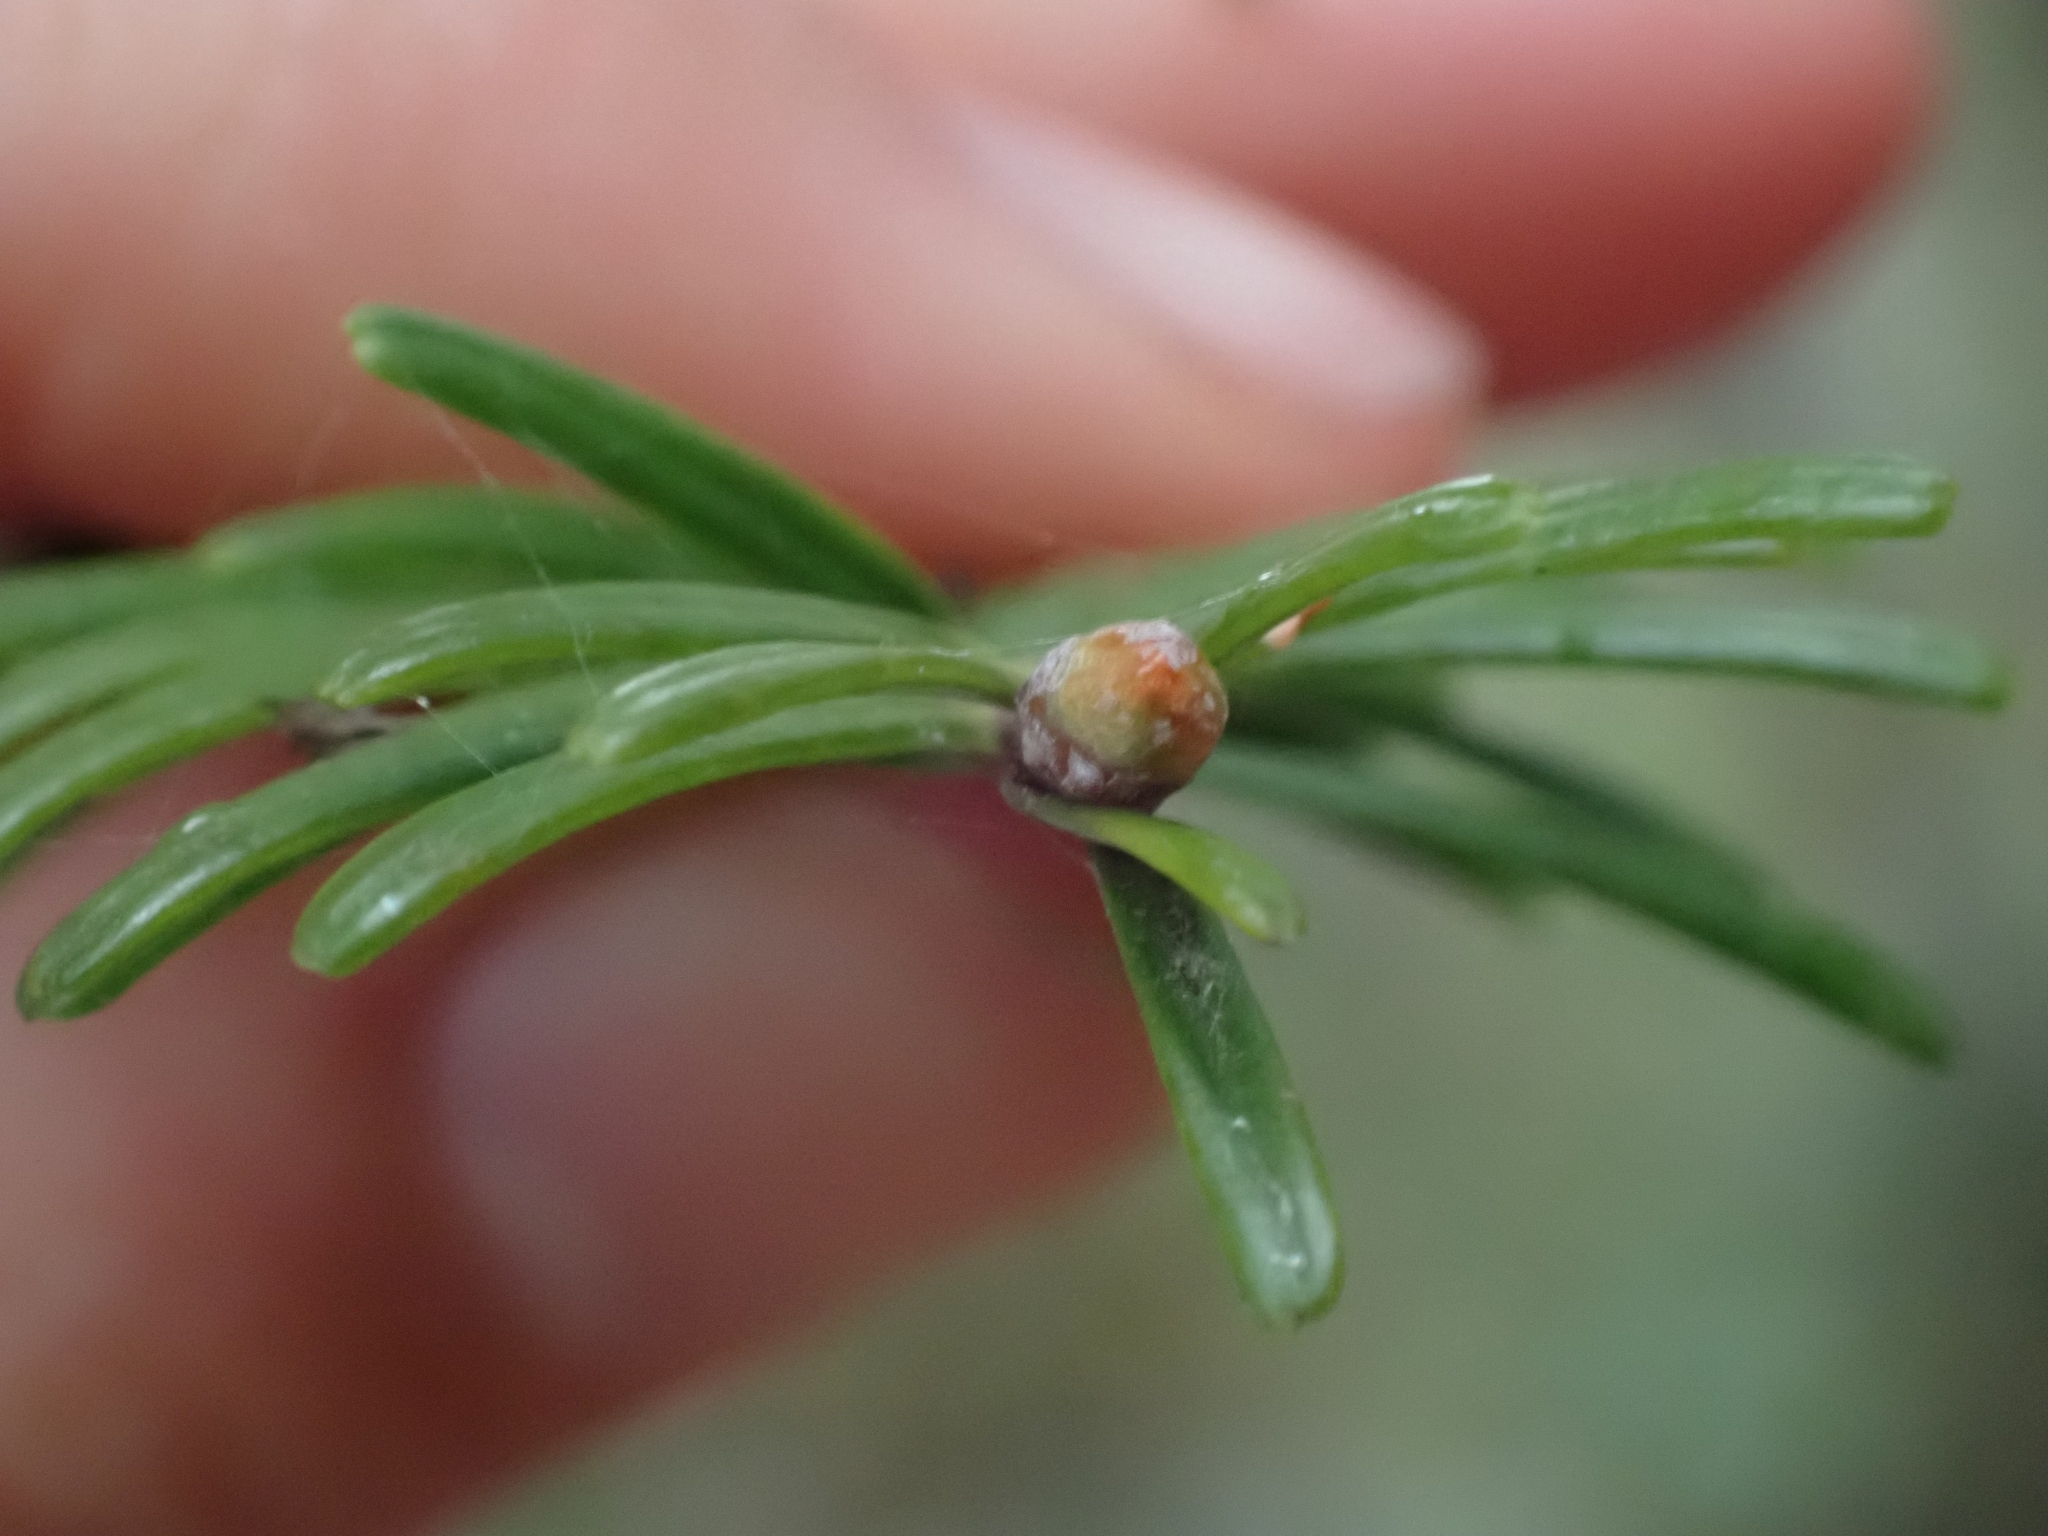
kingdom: Plantae
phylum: Tracheophyta
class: Pinopsida
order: Pinales
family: Pinaceae
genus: Abies
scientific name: Abies grandis
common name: Giant fir
